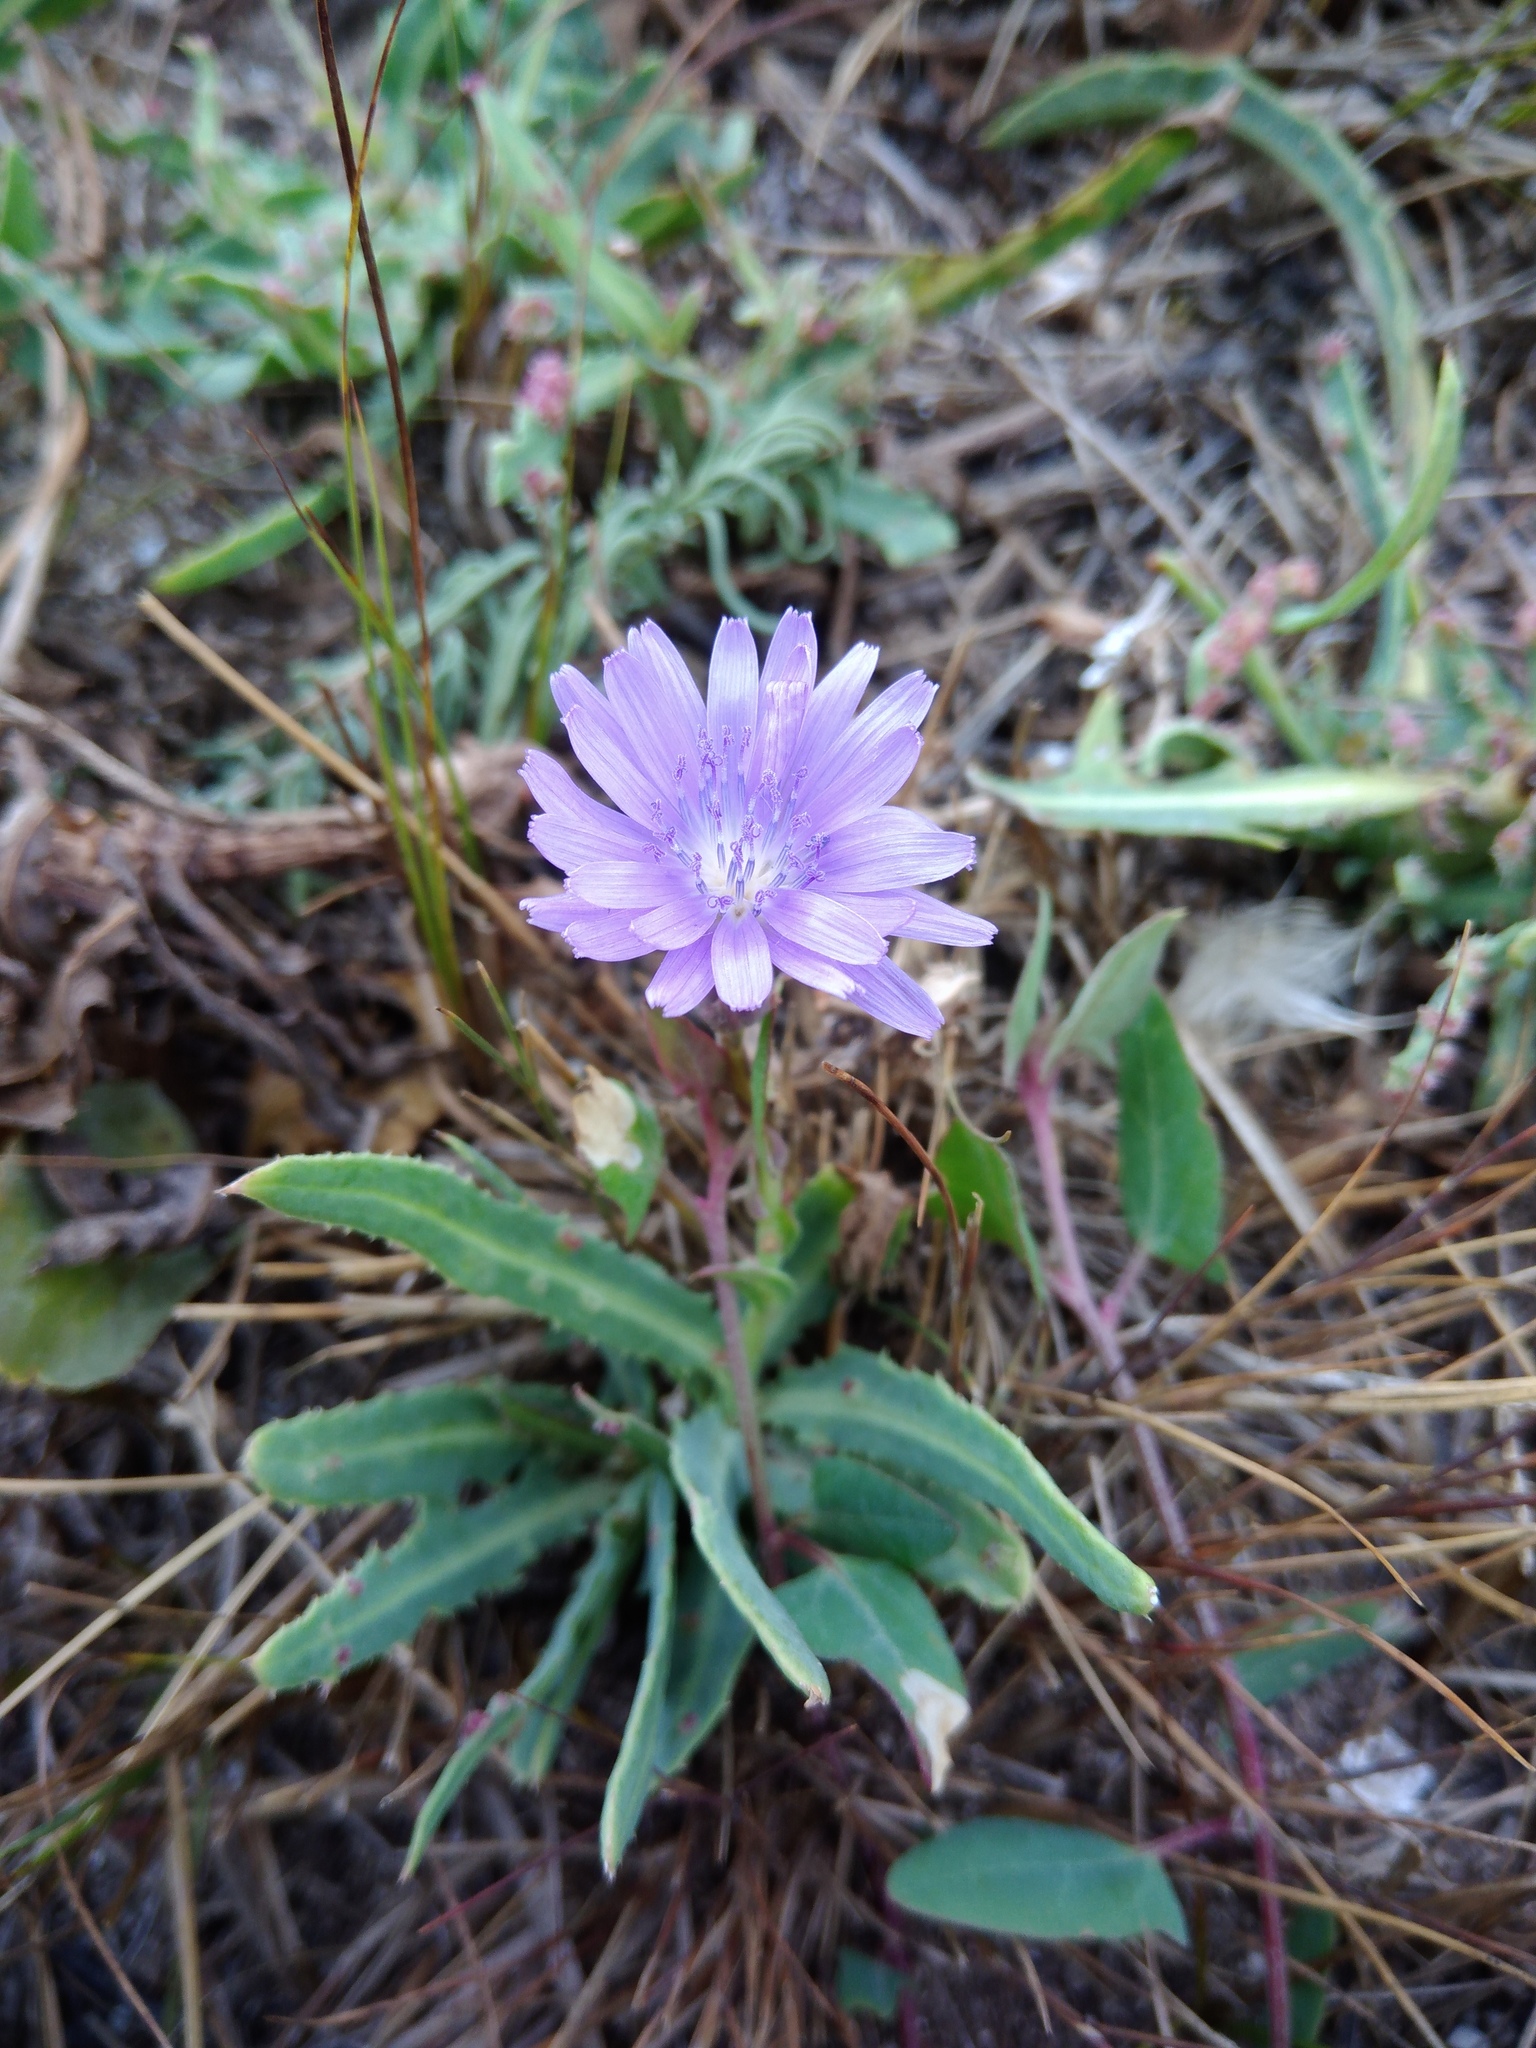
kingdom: Plantae
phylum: Tracheophyta
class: Magnoliopsida
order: Asterales
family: Asteraceae
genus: Lactuca
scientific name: Lactuca tatarica
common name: Blue lettuce
